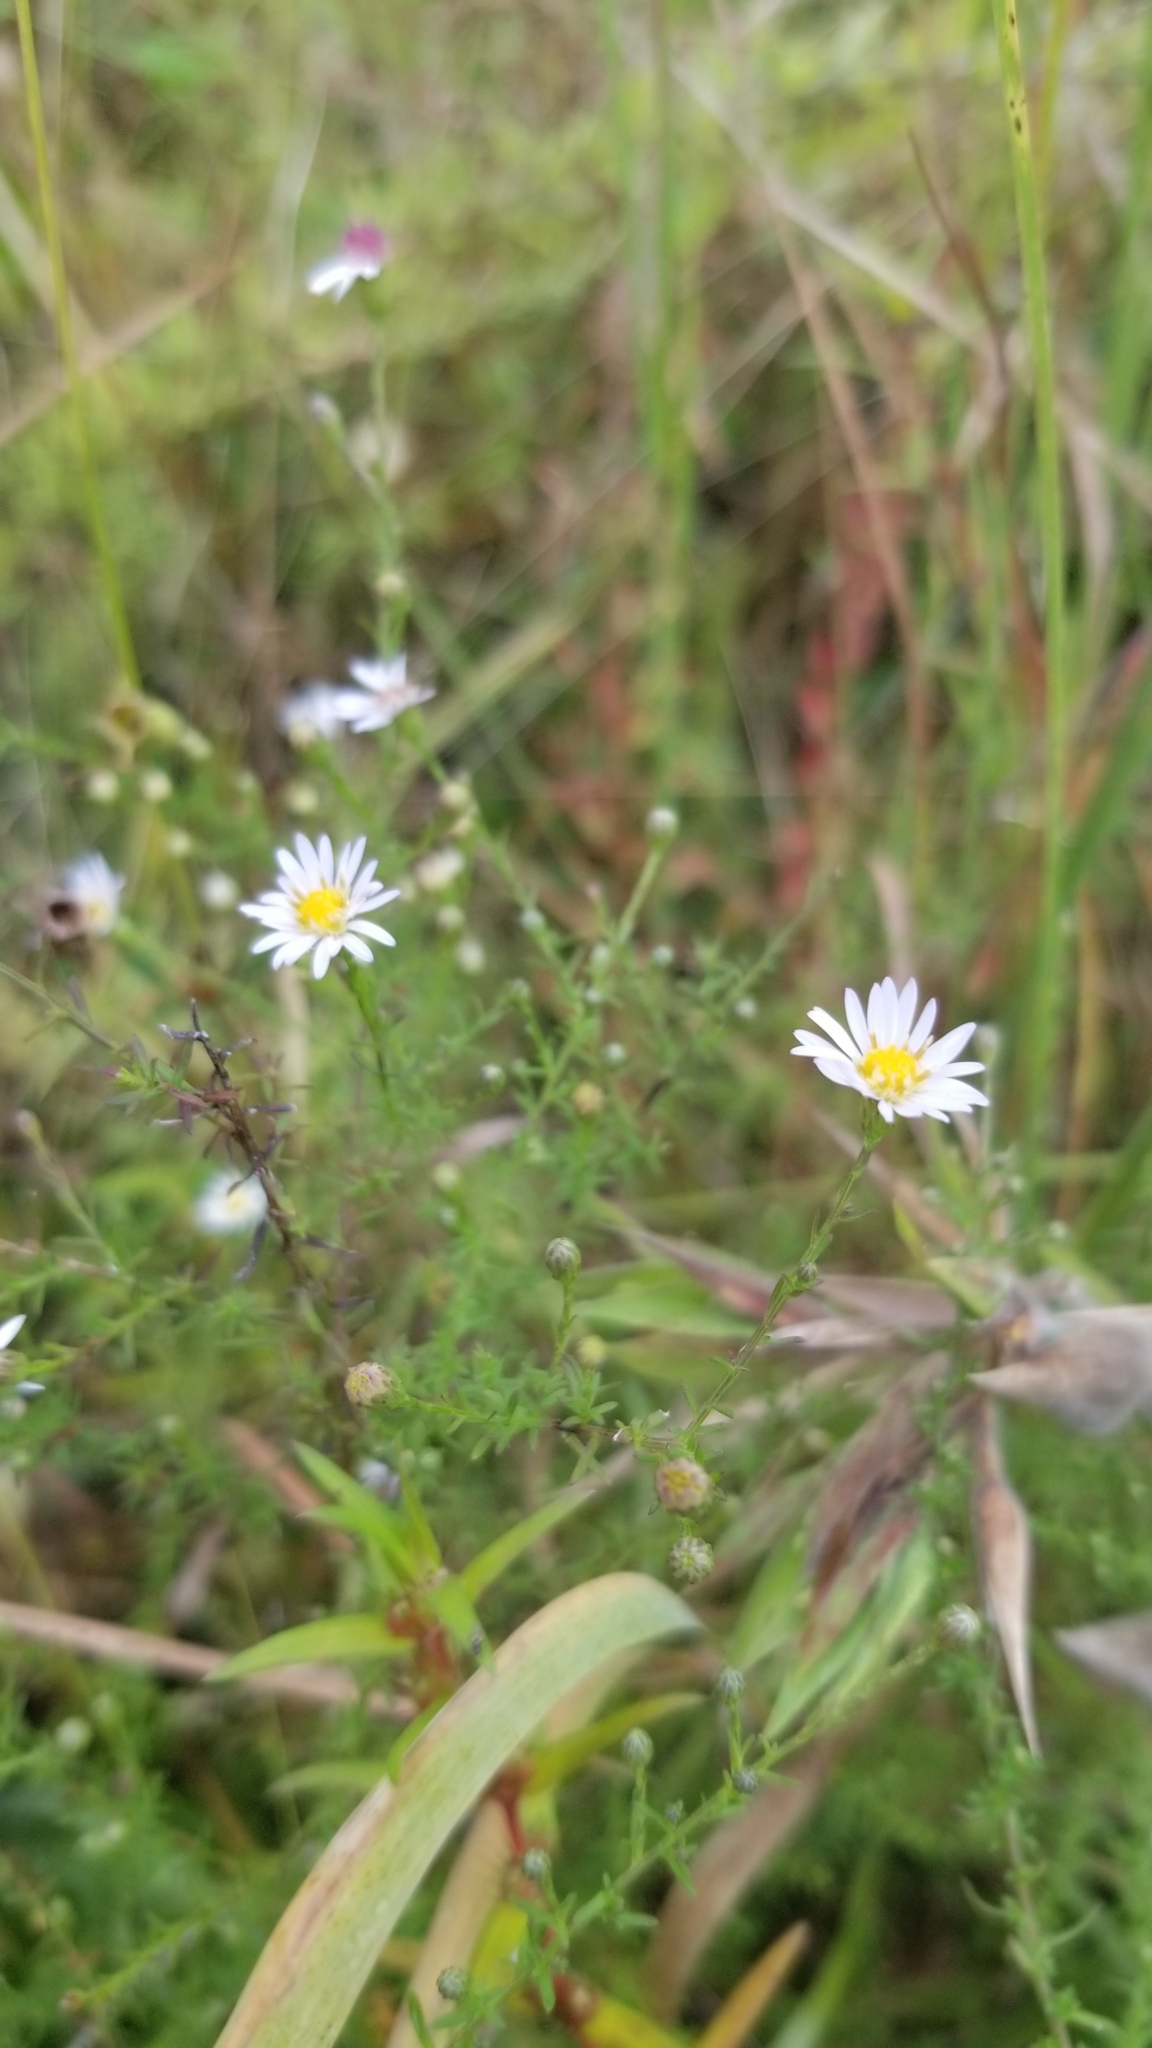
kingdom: Plantae
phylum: Tracheophyta
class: Magnoliopsida
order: Asterales
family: Asteraceae
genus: Symphyotrichum
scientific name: Symphyotrichum dumosum
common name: Bushy aster
